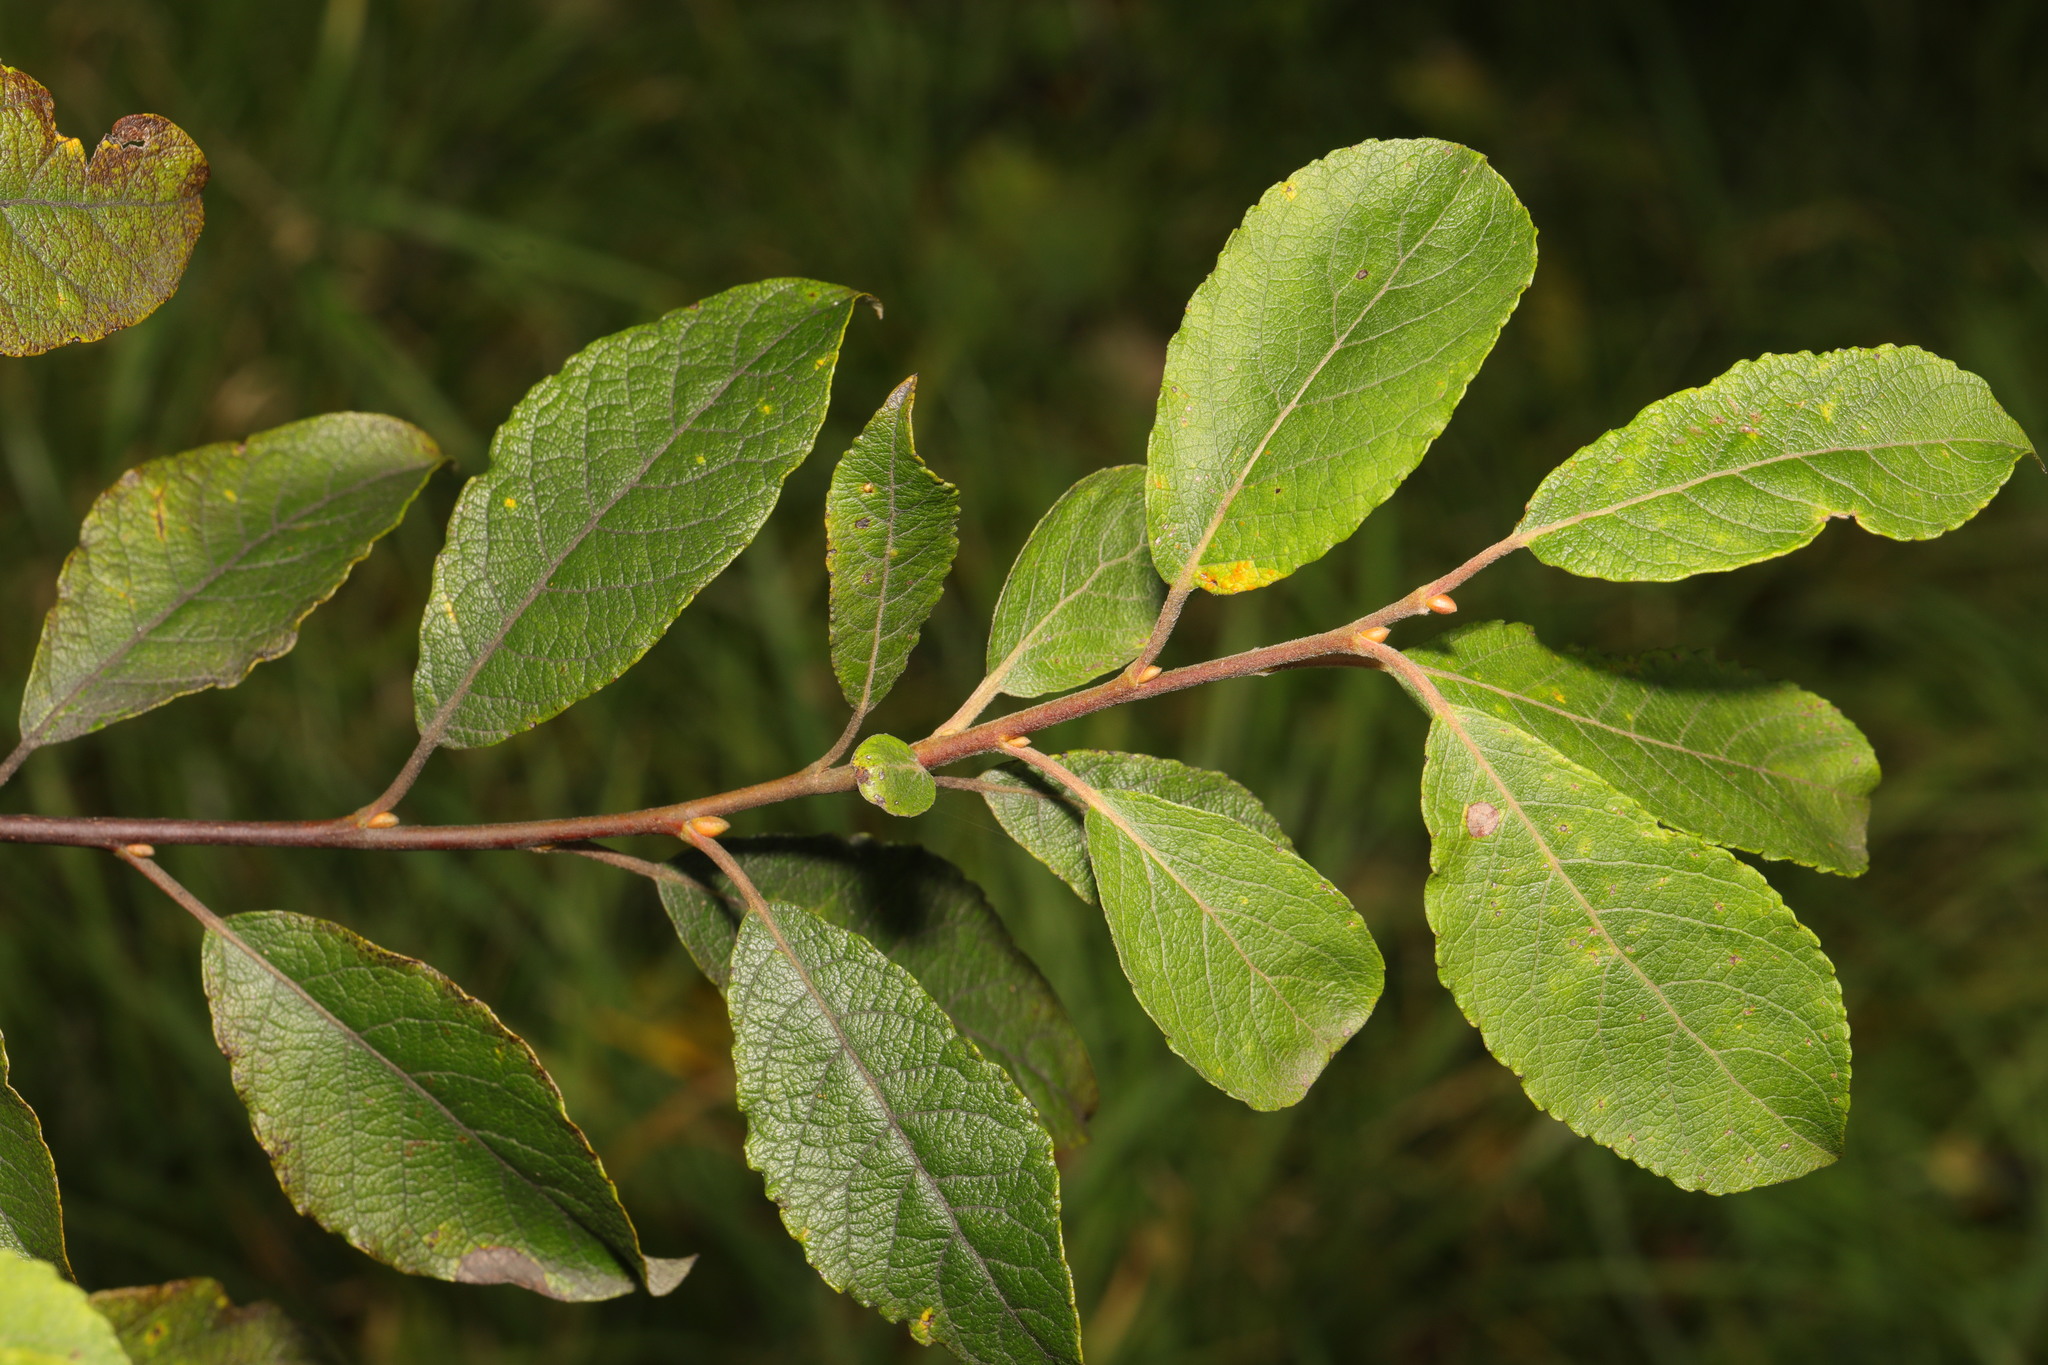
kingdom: Plantae
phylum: Tracheophyta
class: Magnoliopsida
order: Malpighiales
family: Salicaceae
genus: Salix
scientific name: Salix cinerea
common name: Common sallow
